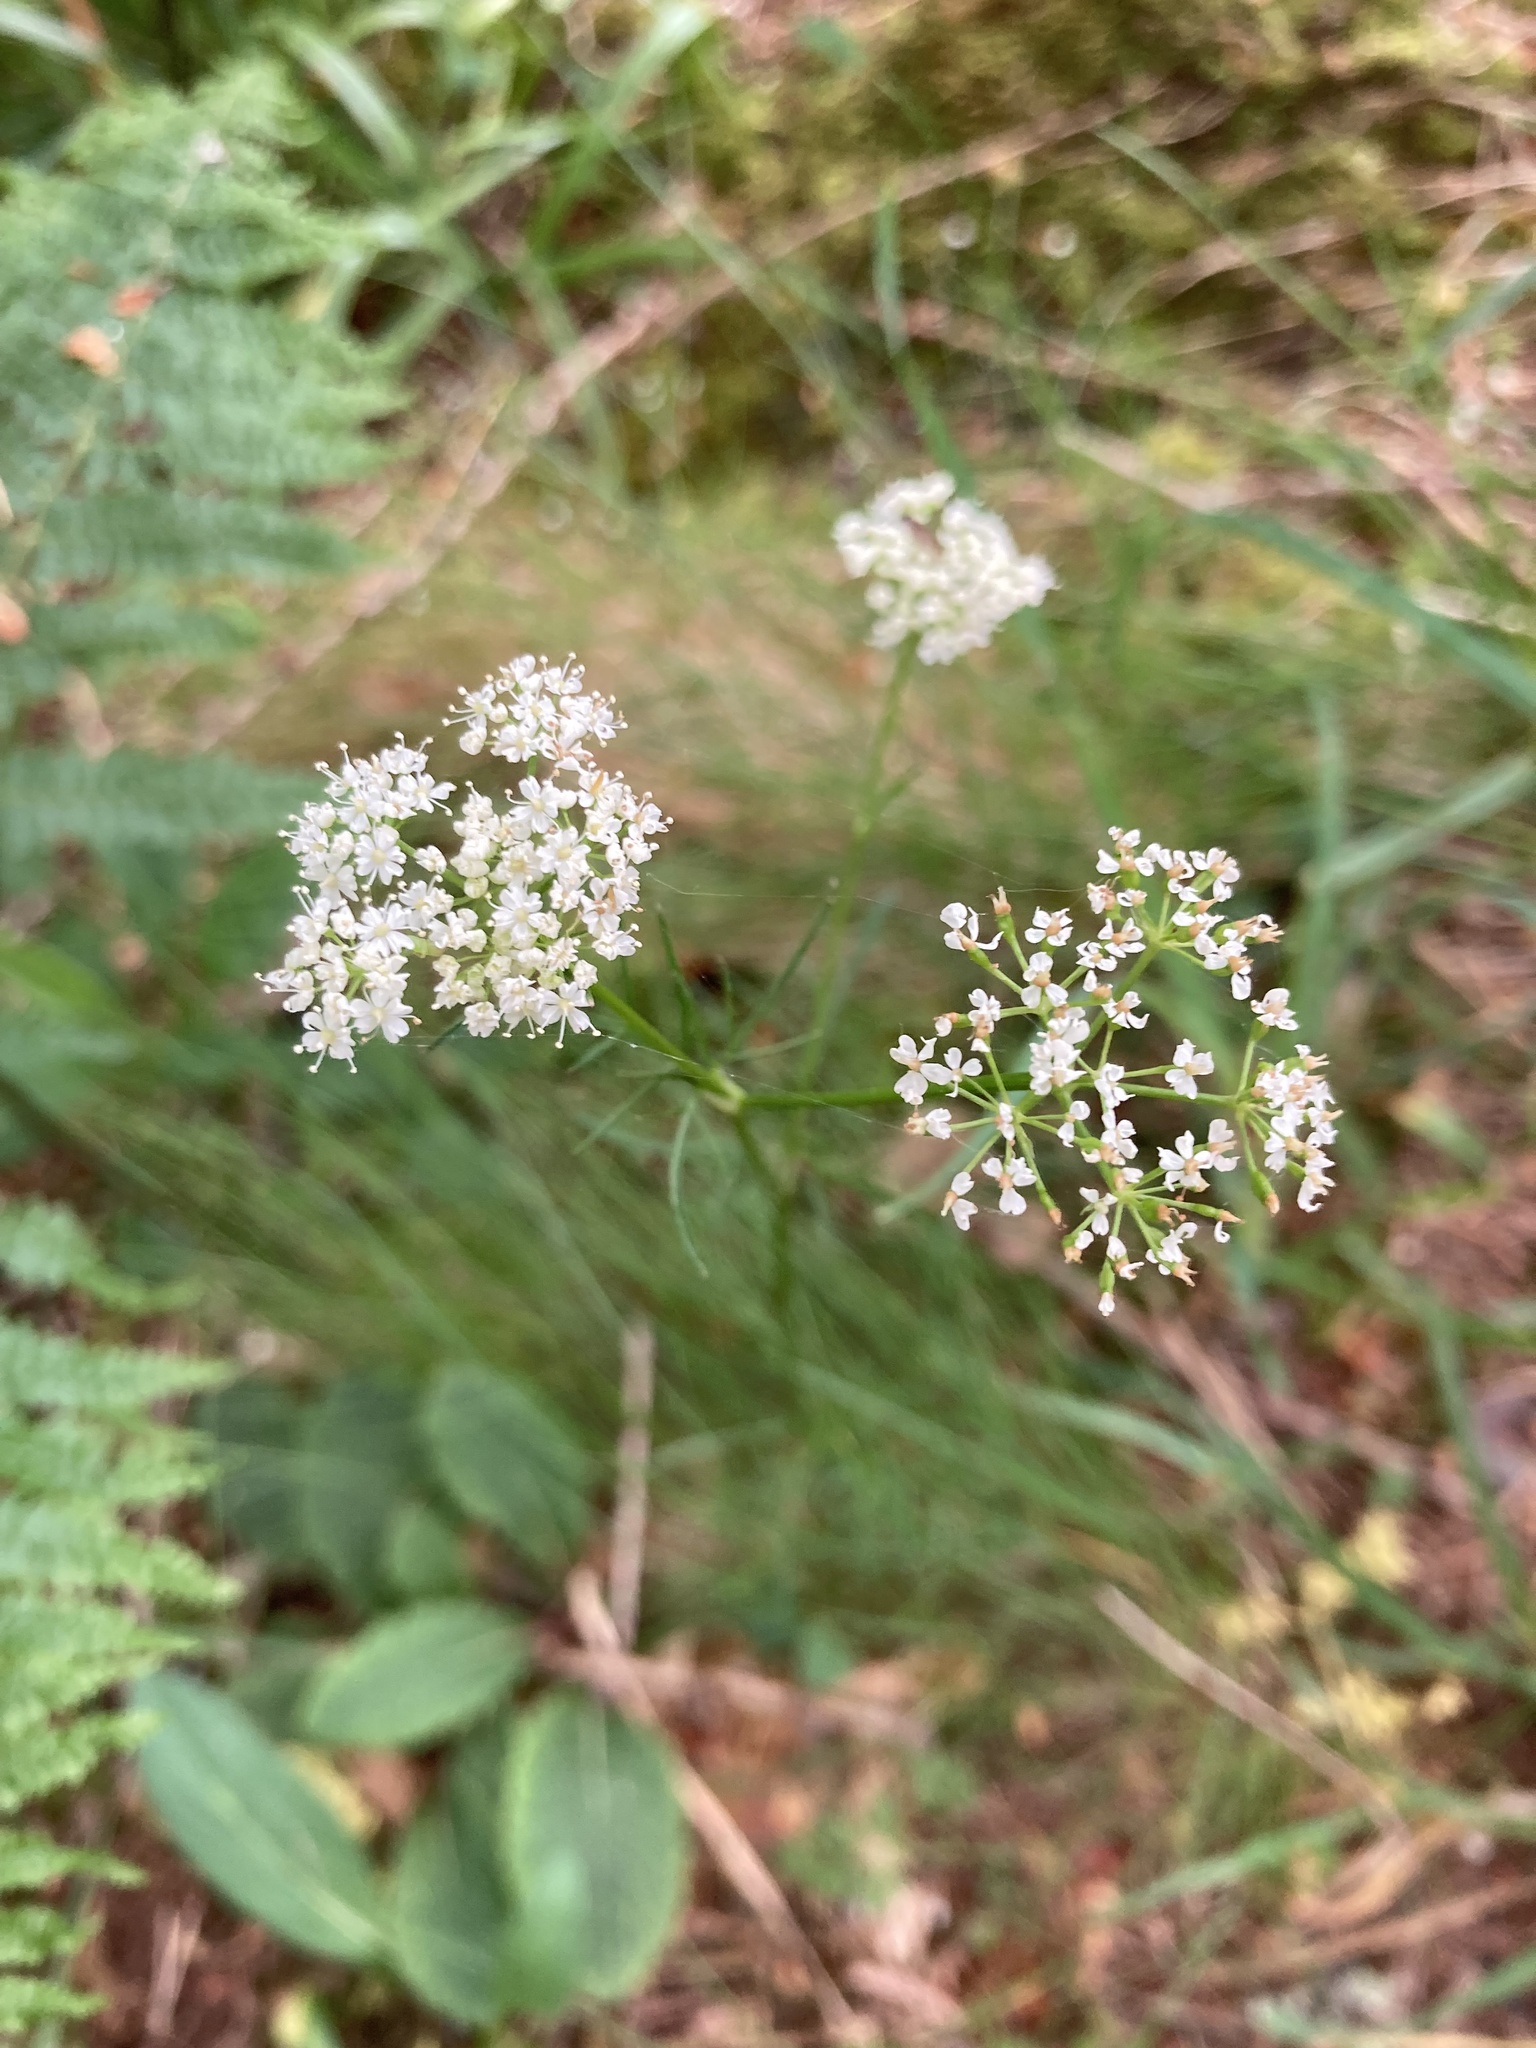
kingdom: Plantae
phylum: Tracheophyta
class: Magnoliopsida
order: Apiales
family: Apiaceae
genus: Conopodium
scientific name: Conopodium majus
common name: Pignut
